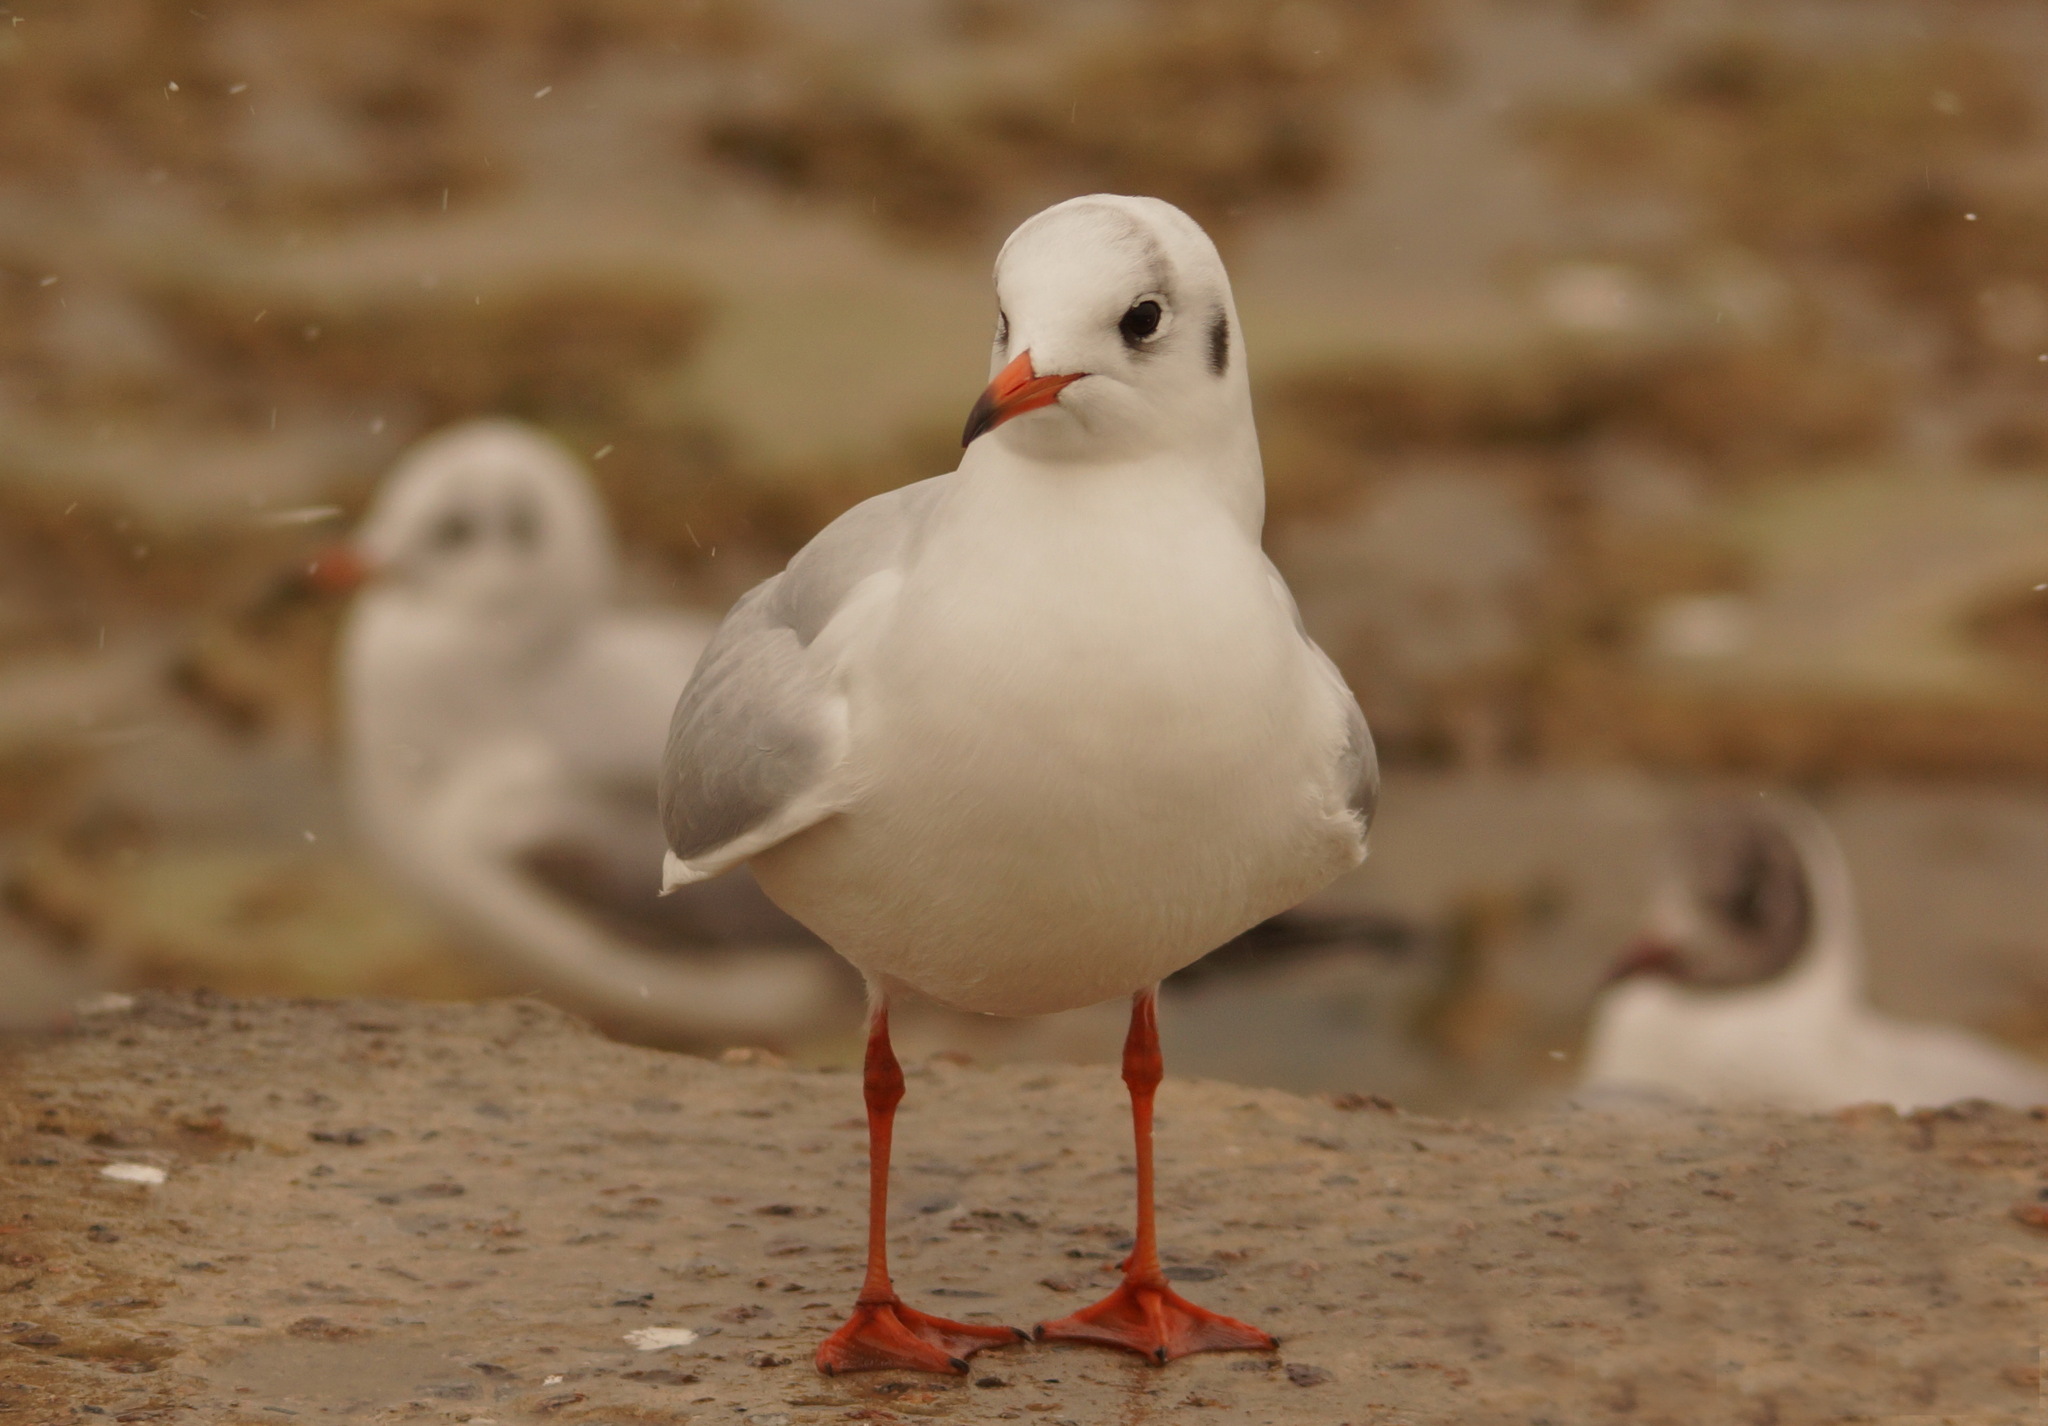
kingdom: Animalia
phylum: Chordata
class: Aves
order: Charadriiformes
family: Laridae
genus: Chroicocephalus
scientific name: Chroicocephalus ridibundus
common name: Black-headed gull
